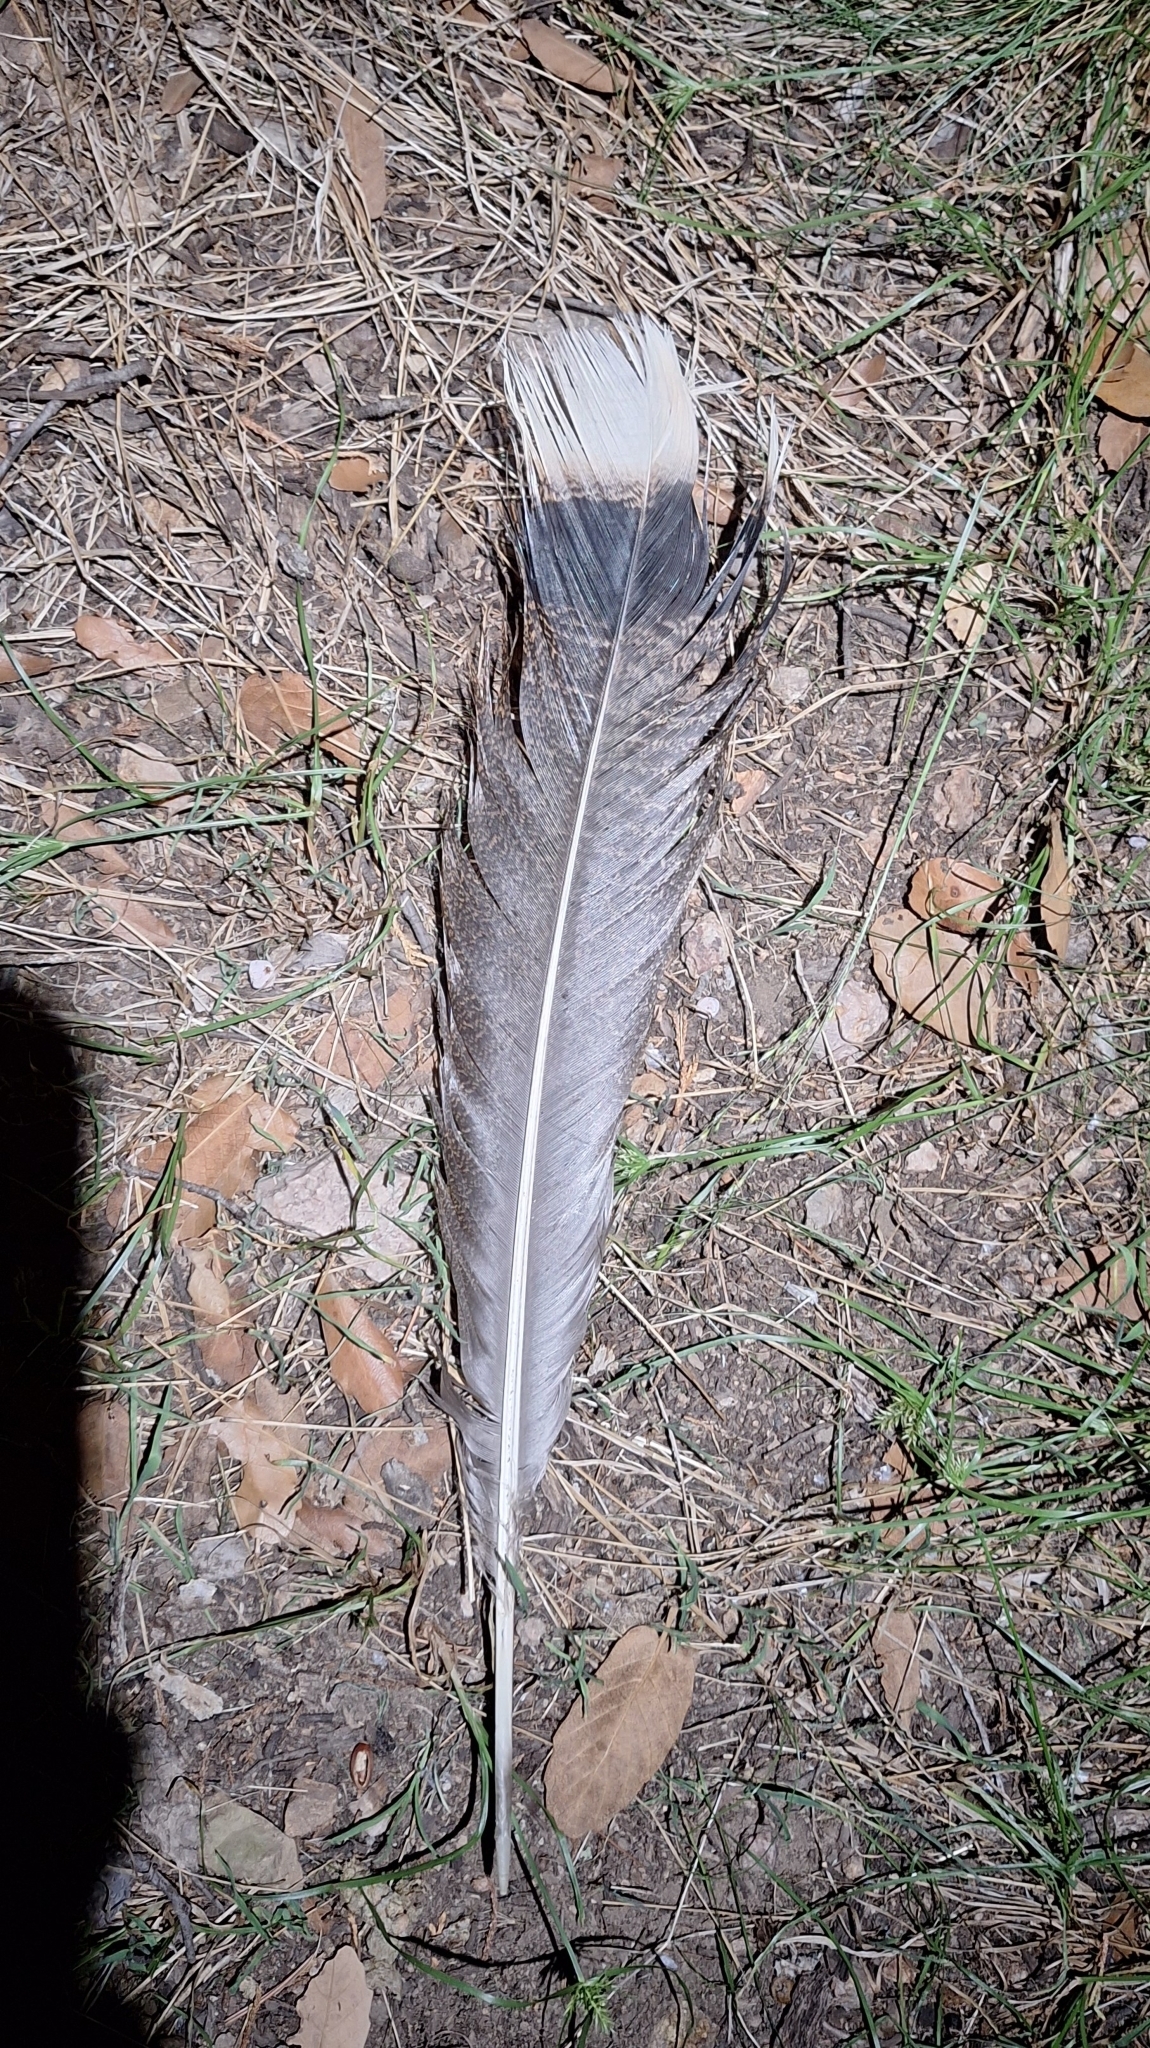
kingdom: Animalia
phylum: Chordata
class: Aves
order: Galliformes
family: Phasianidae
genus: Meleagris
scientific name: Meleagris gallopavo
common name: Wild turkey
